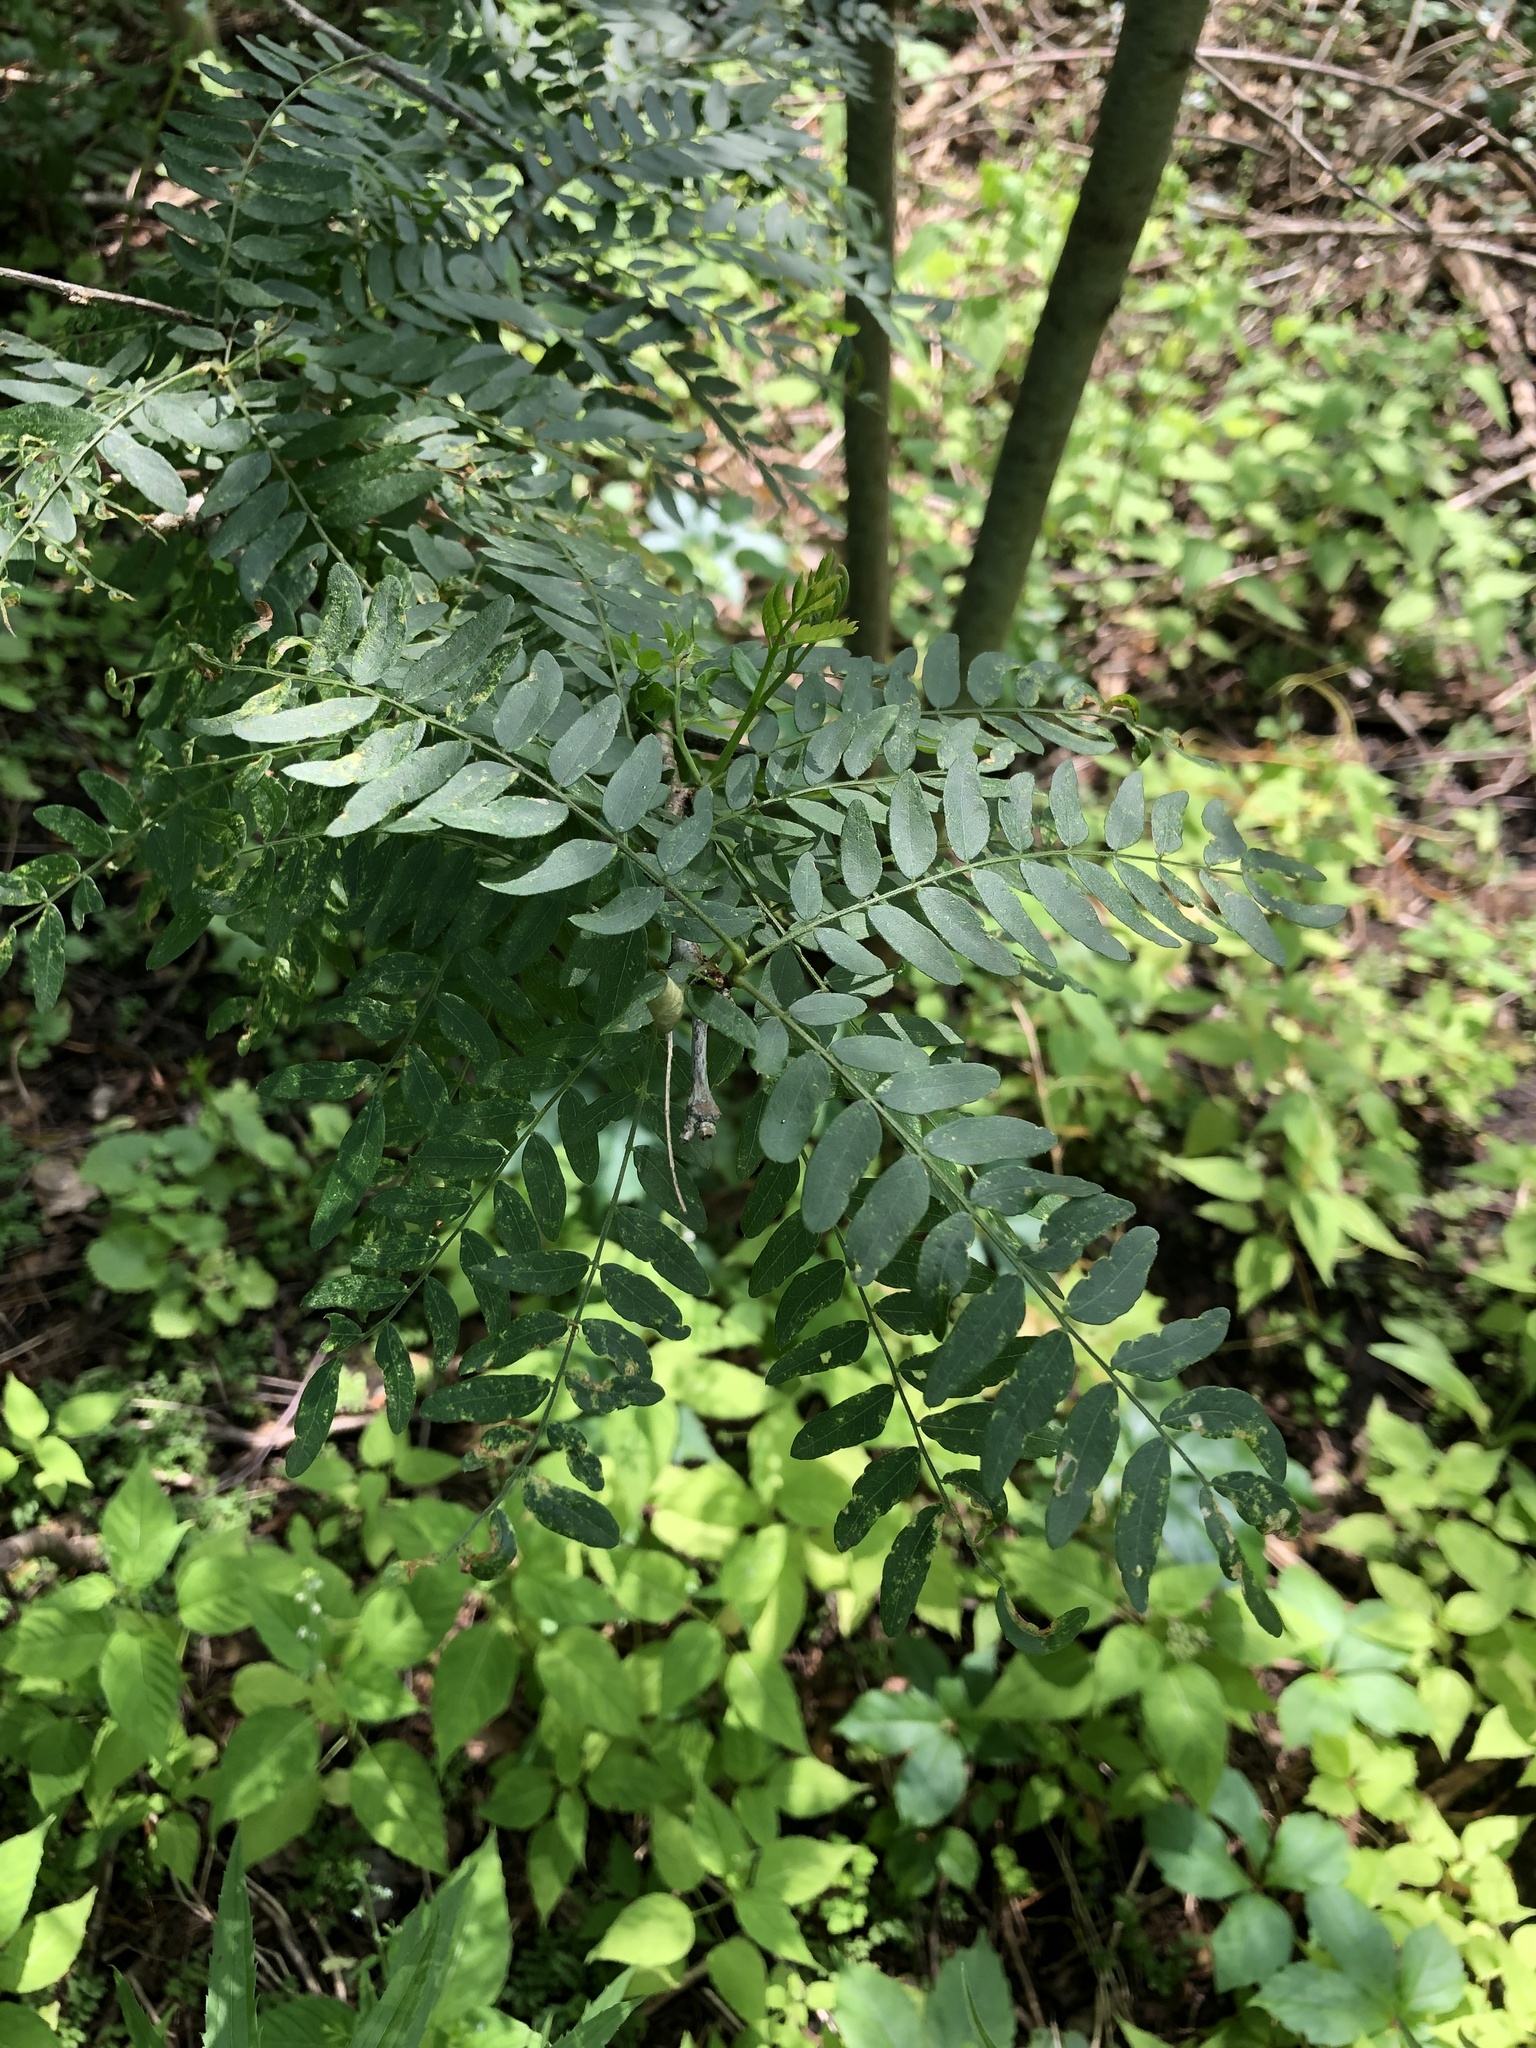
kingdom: Plantae
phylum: Tracheophyta
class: Magnoliopsida
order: Fabales
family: Fabaceae
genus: Gleditsia
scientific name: Gleditsia triacanthos
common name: Common honeylocust
